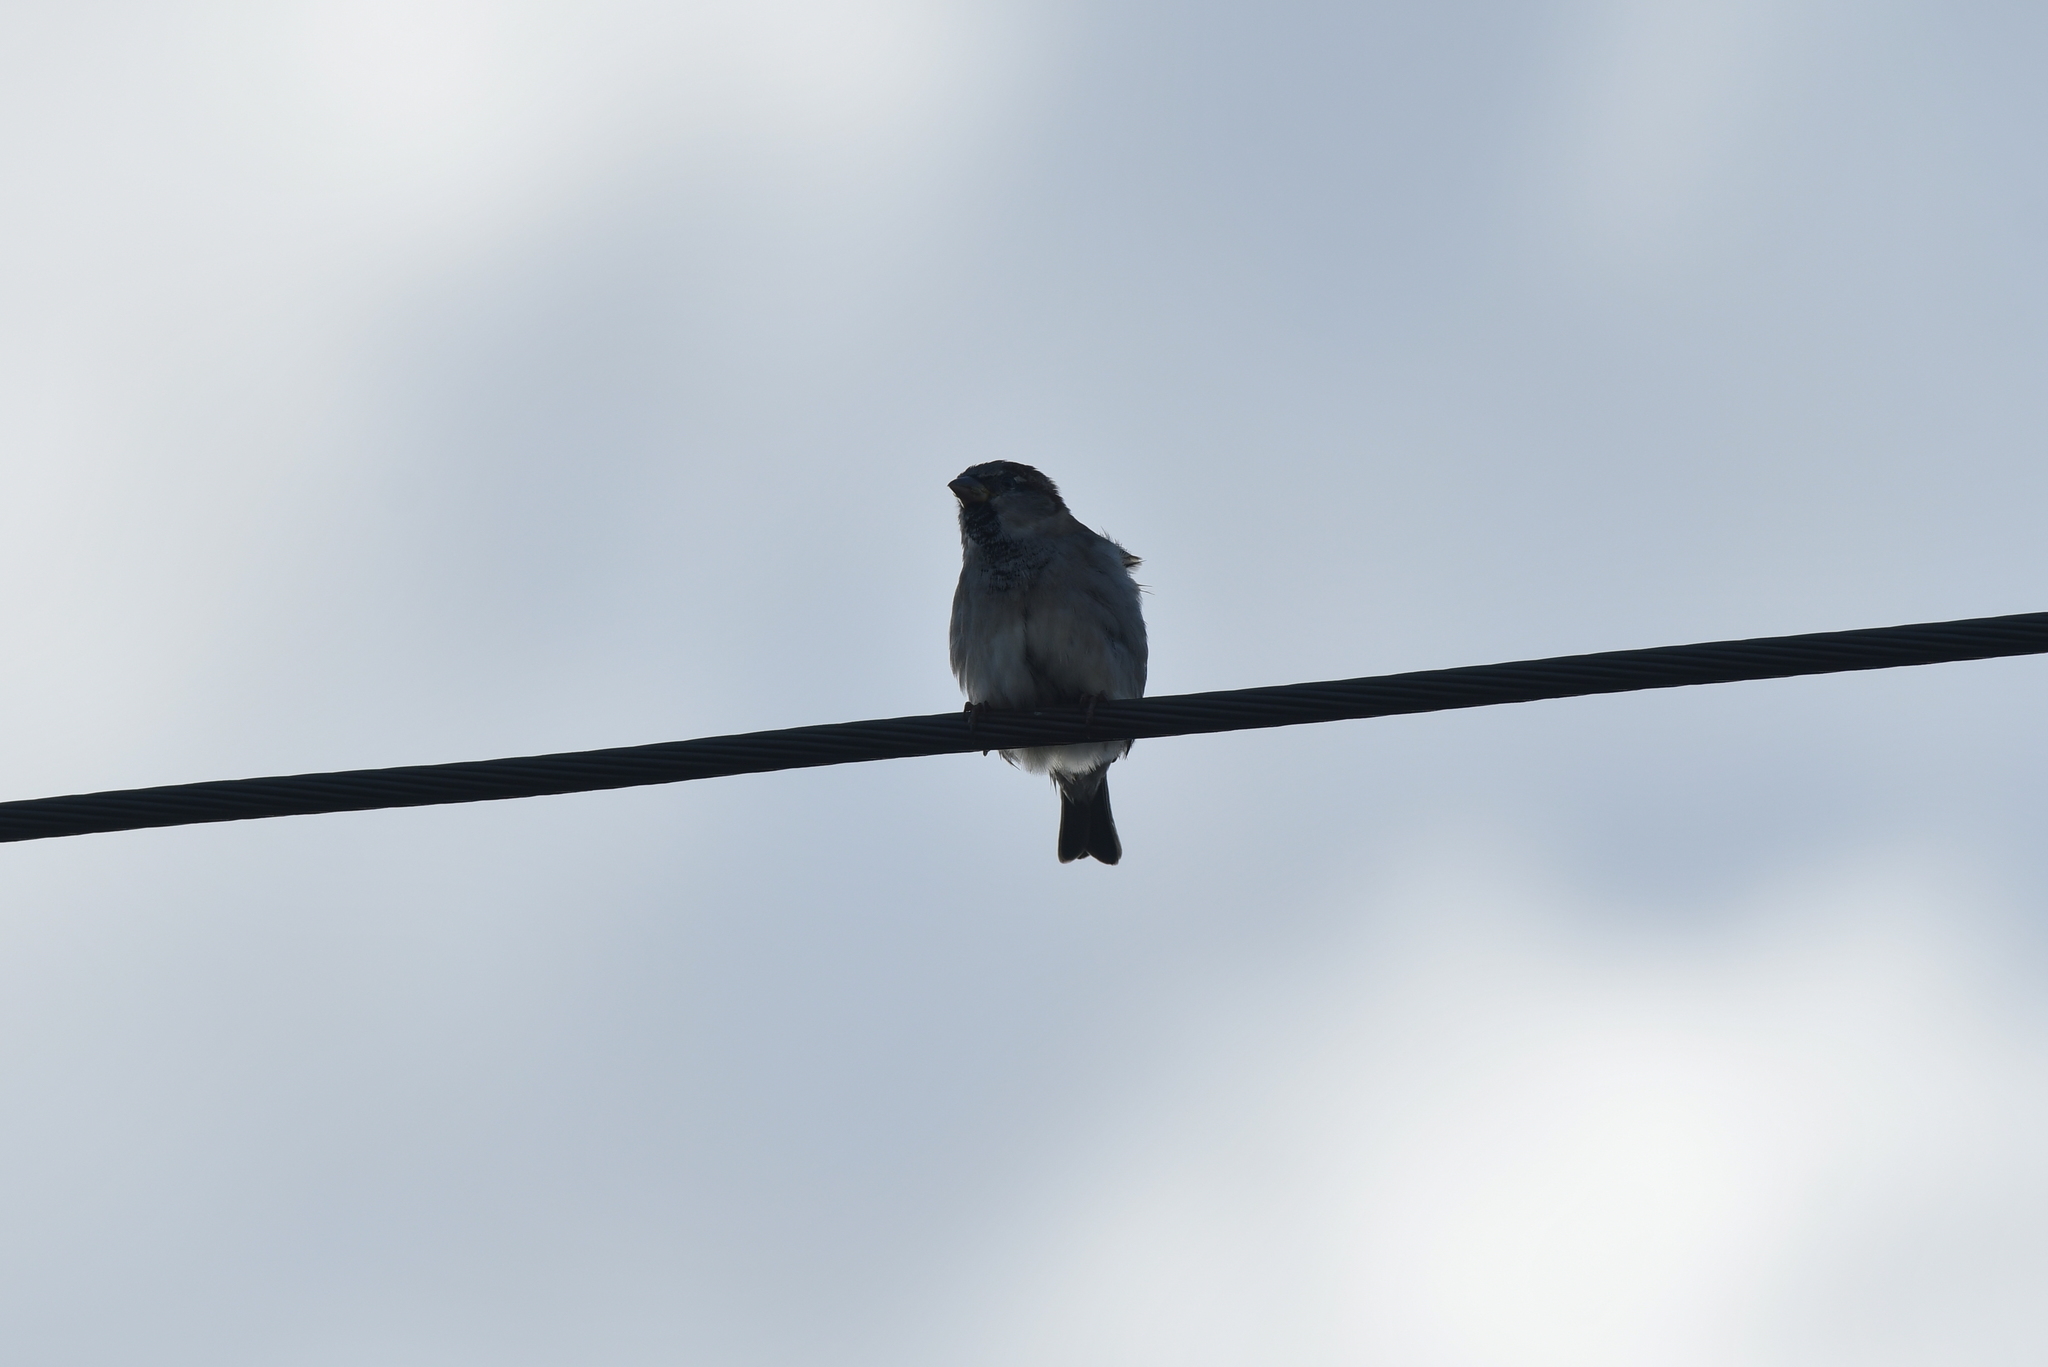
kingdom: Animalia
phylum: Chordata
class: Aves
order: Passeriformes
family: Passeridae
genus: Passer
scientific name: Passer domesticus
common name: House sparrow
